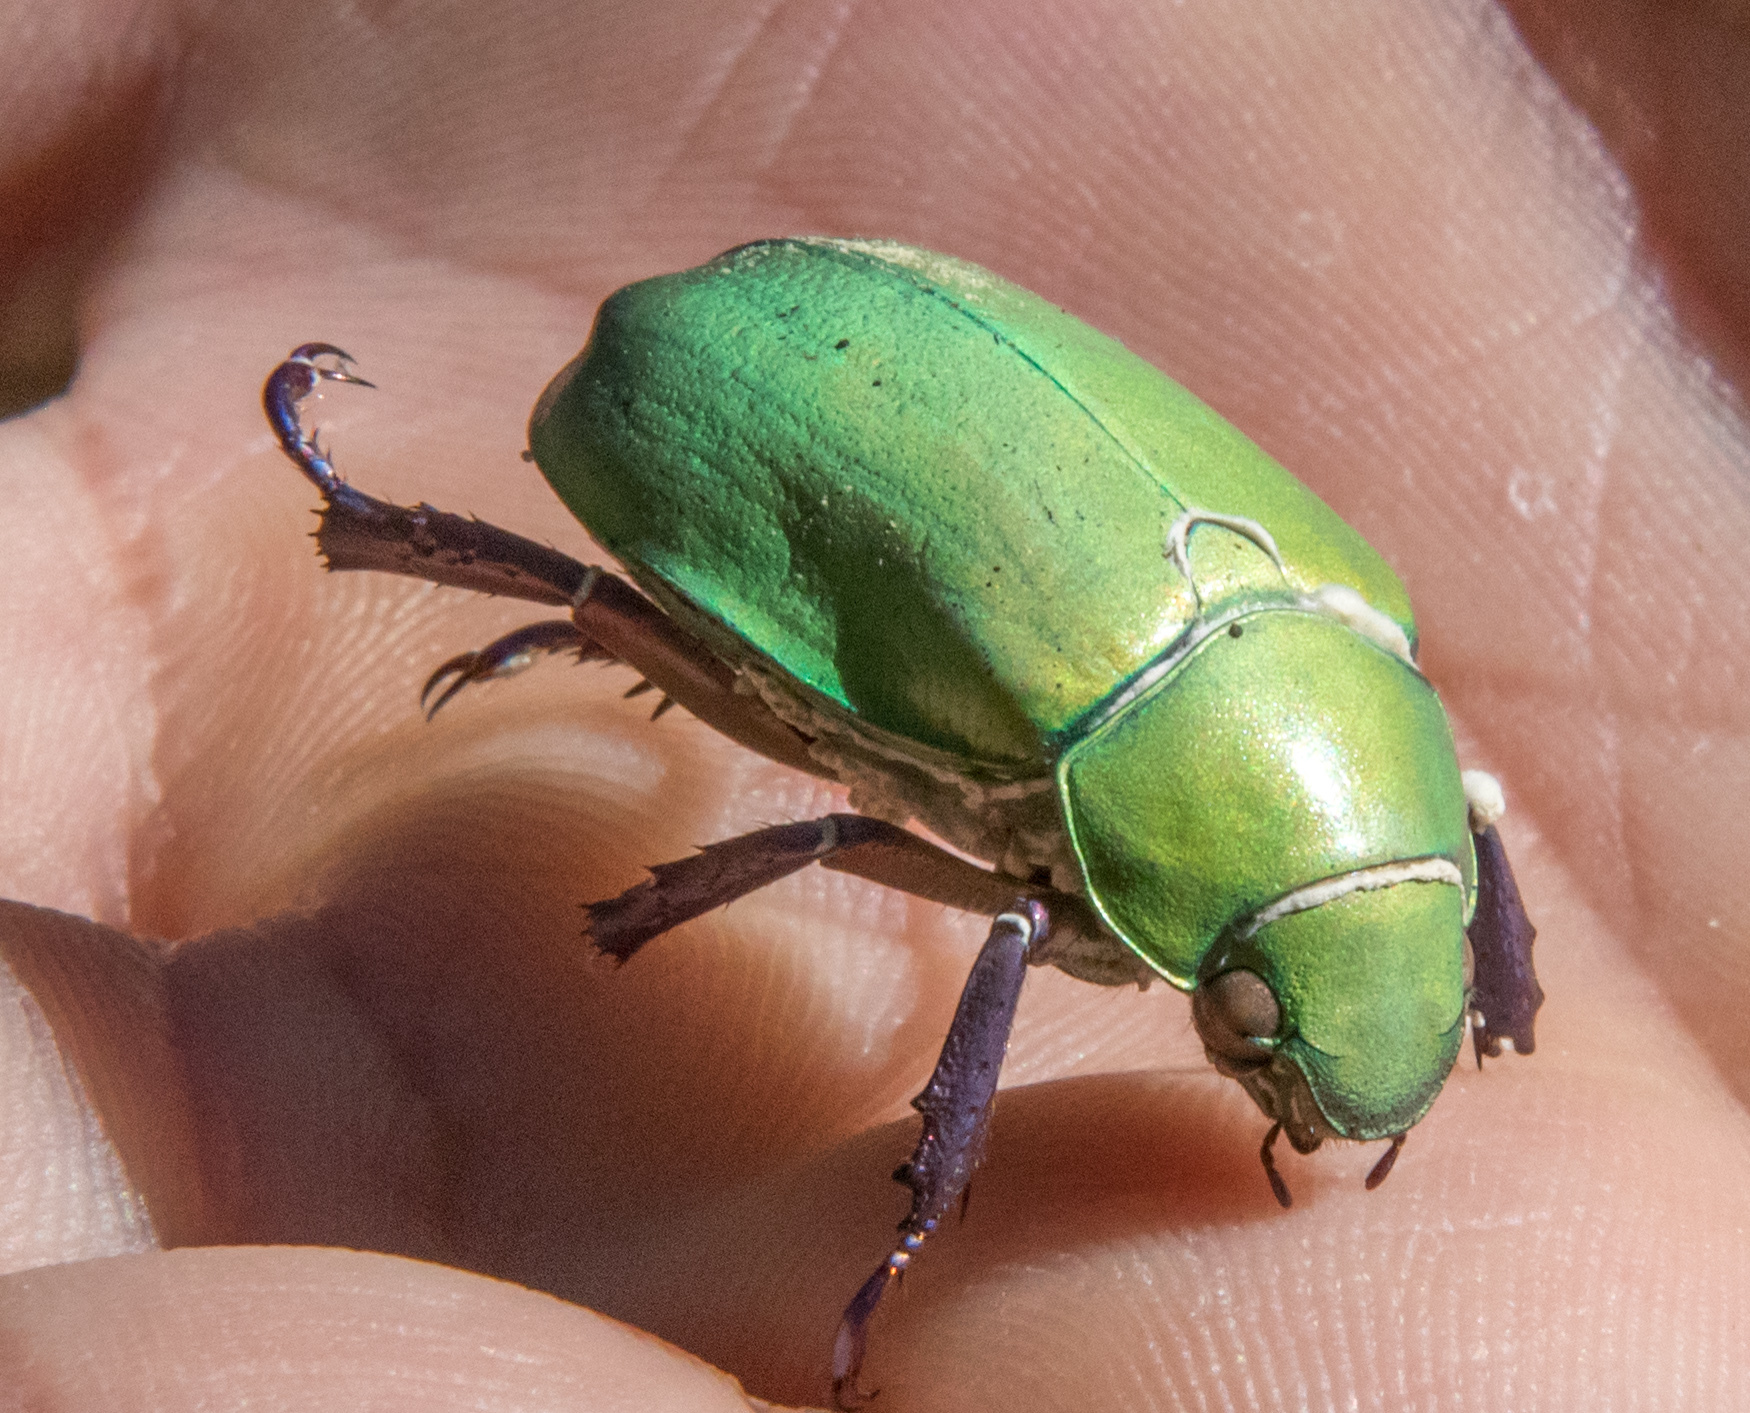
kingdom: Animalia
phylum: Arthropoda
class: Insecta
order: Coleoptera
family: Scarabaeidae
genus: Chrysina
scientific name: Chrysina beyeri
